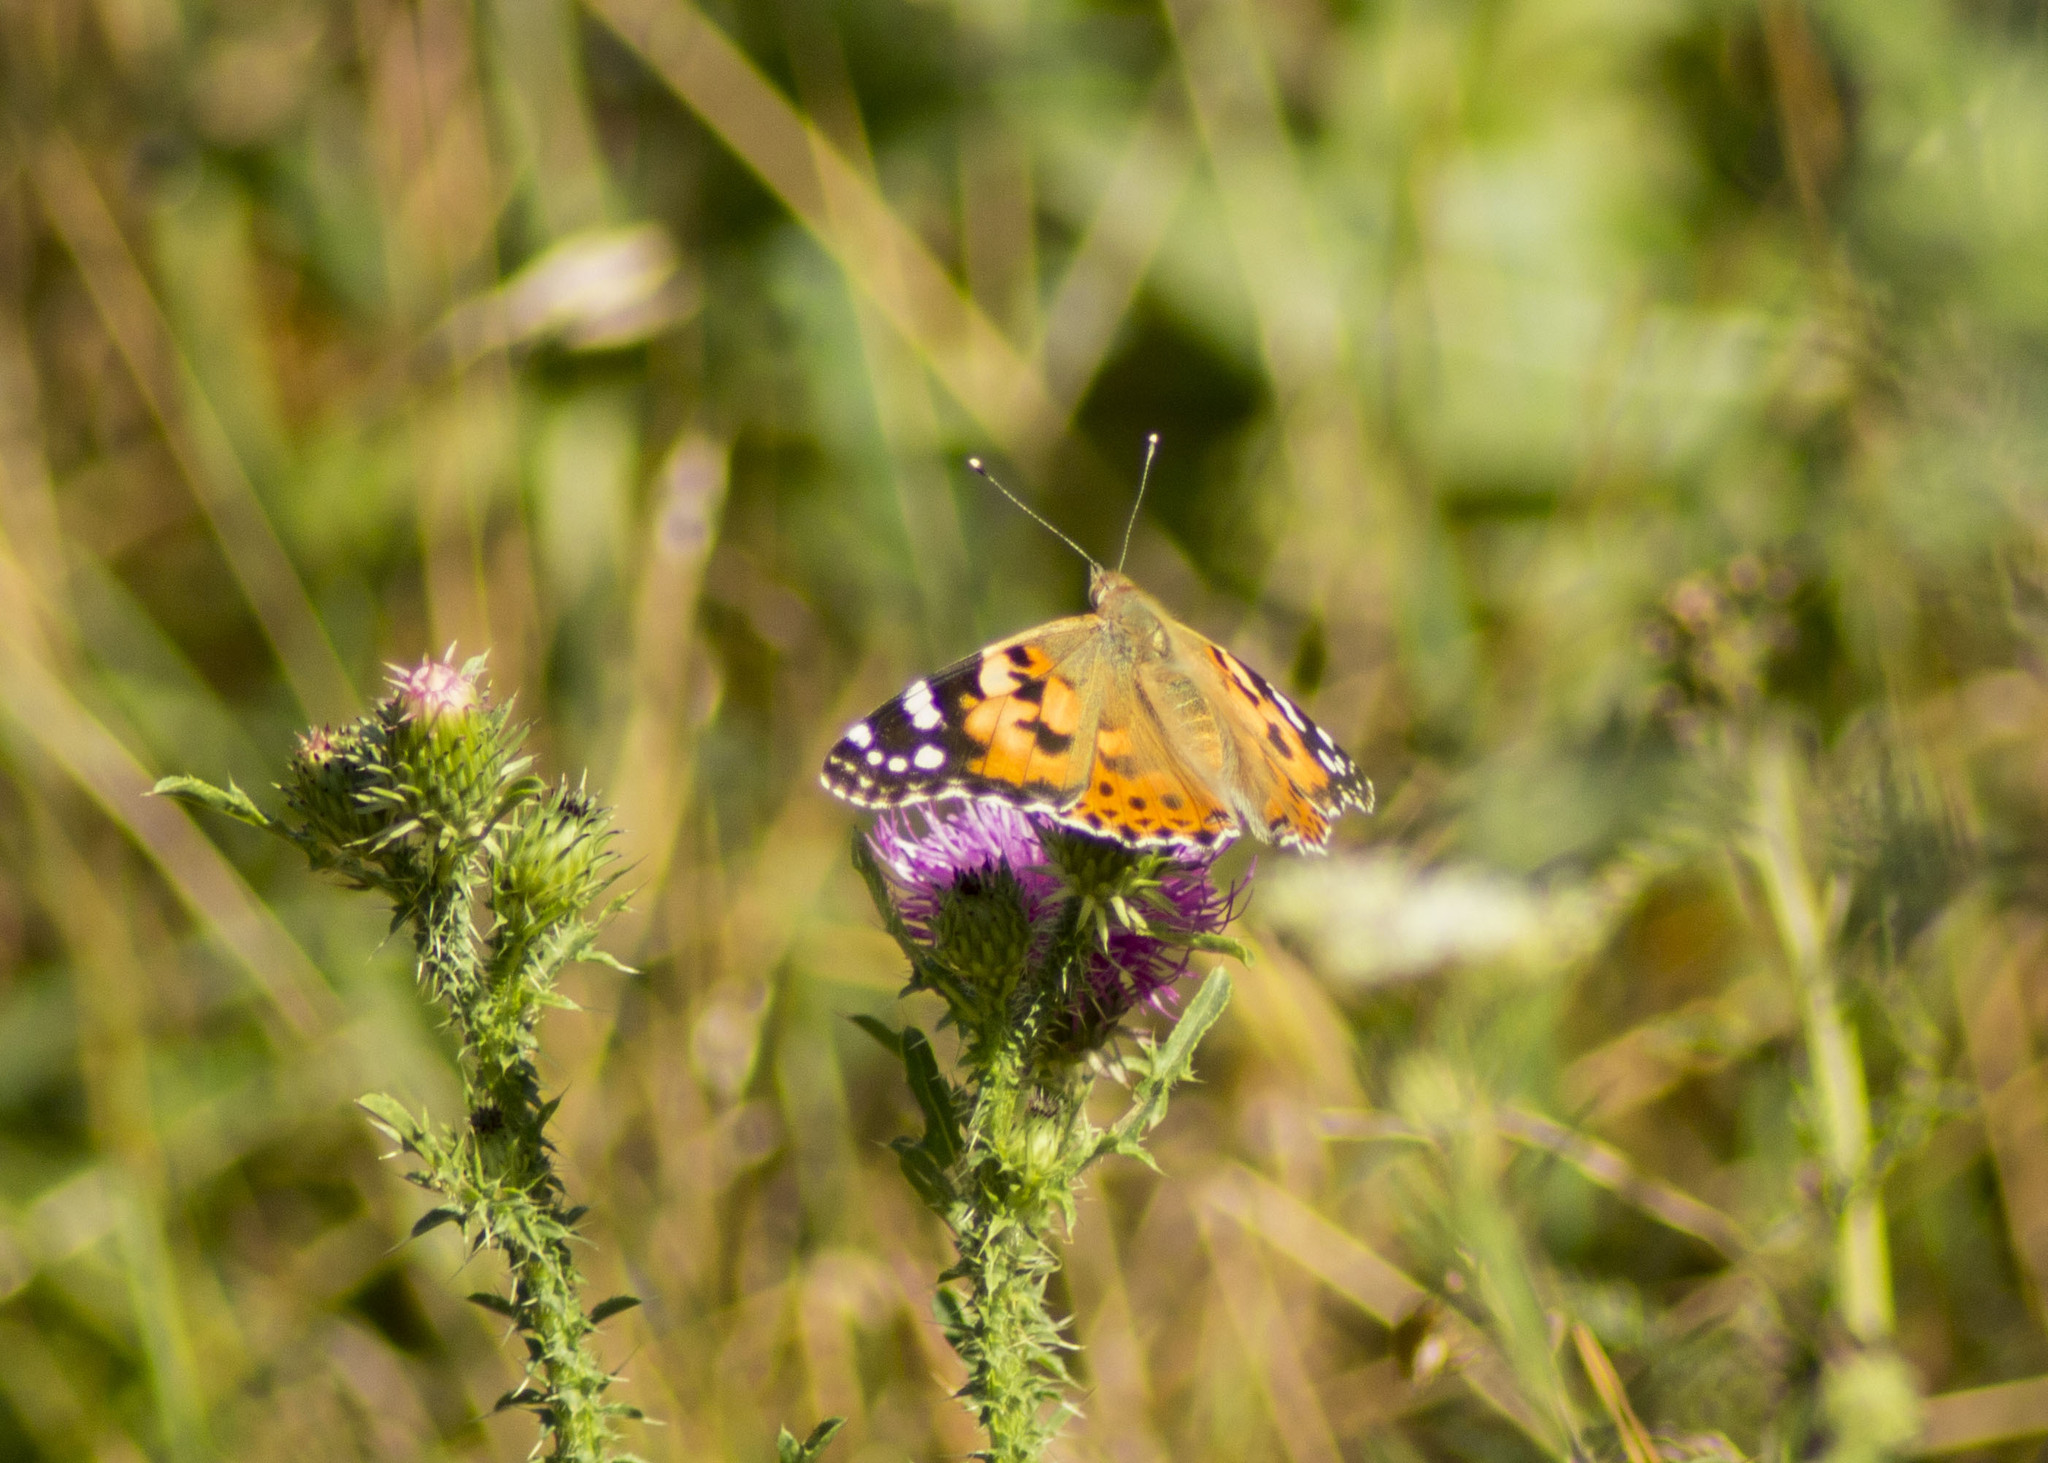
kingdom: Animalia
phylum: Arthropoda
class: Insecta
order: Lepidoptera
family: Nymphalidae
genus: Vanessa
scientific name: Vanessa cardui
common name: Painted lady
